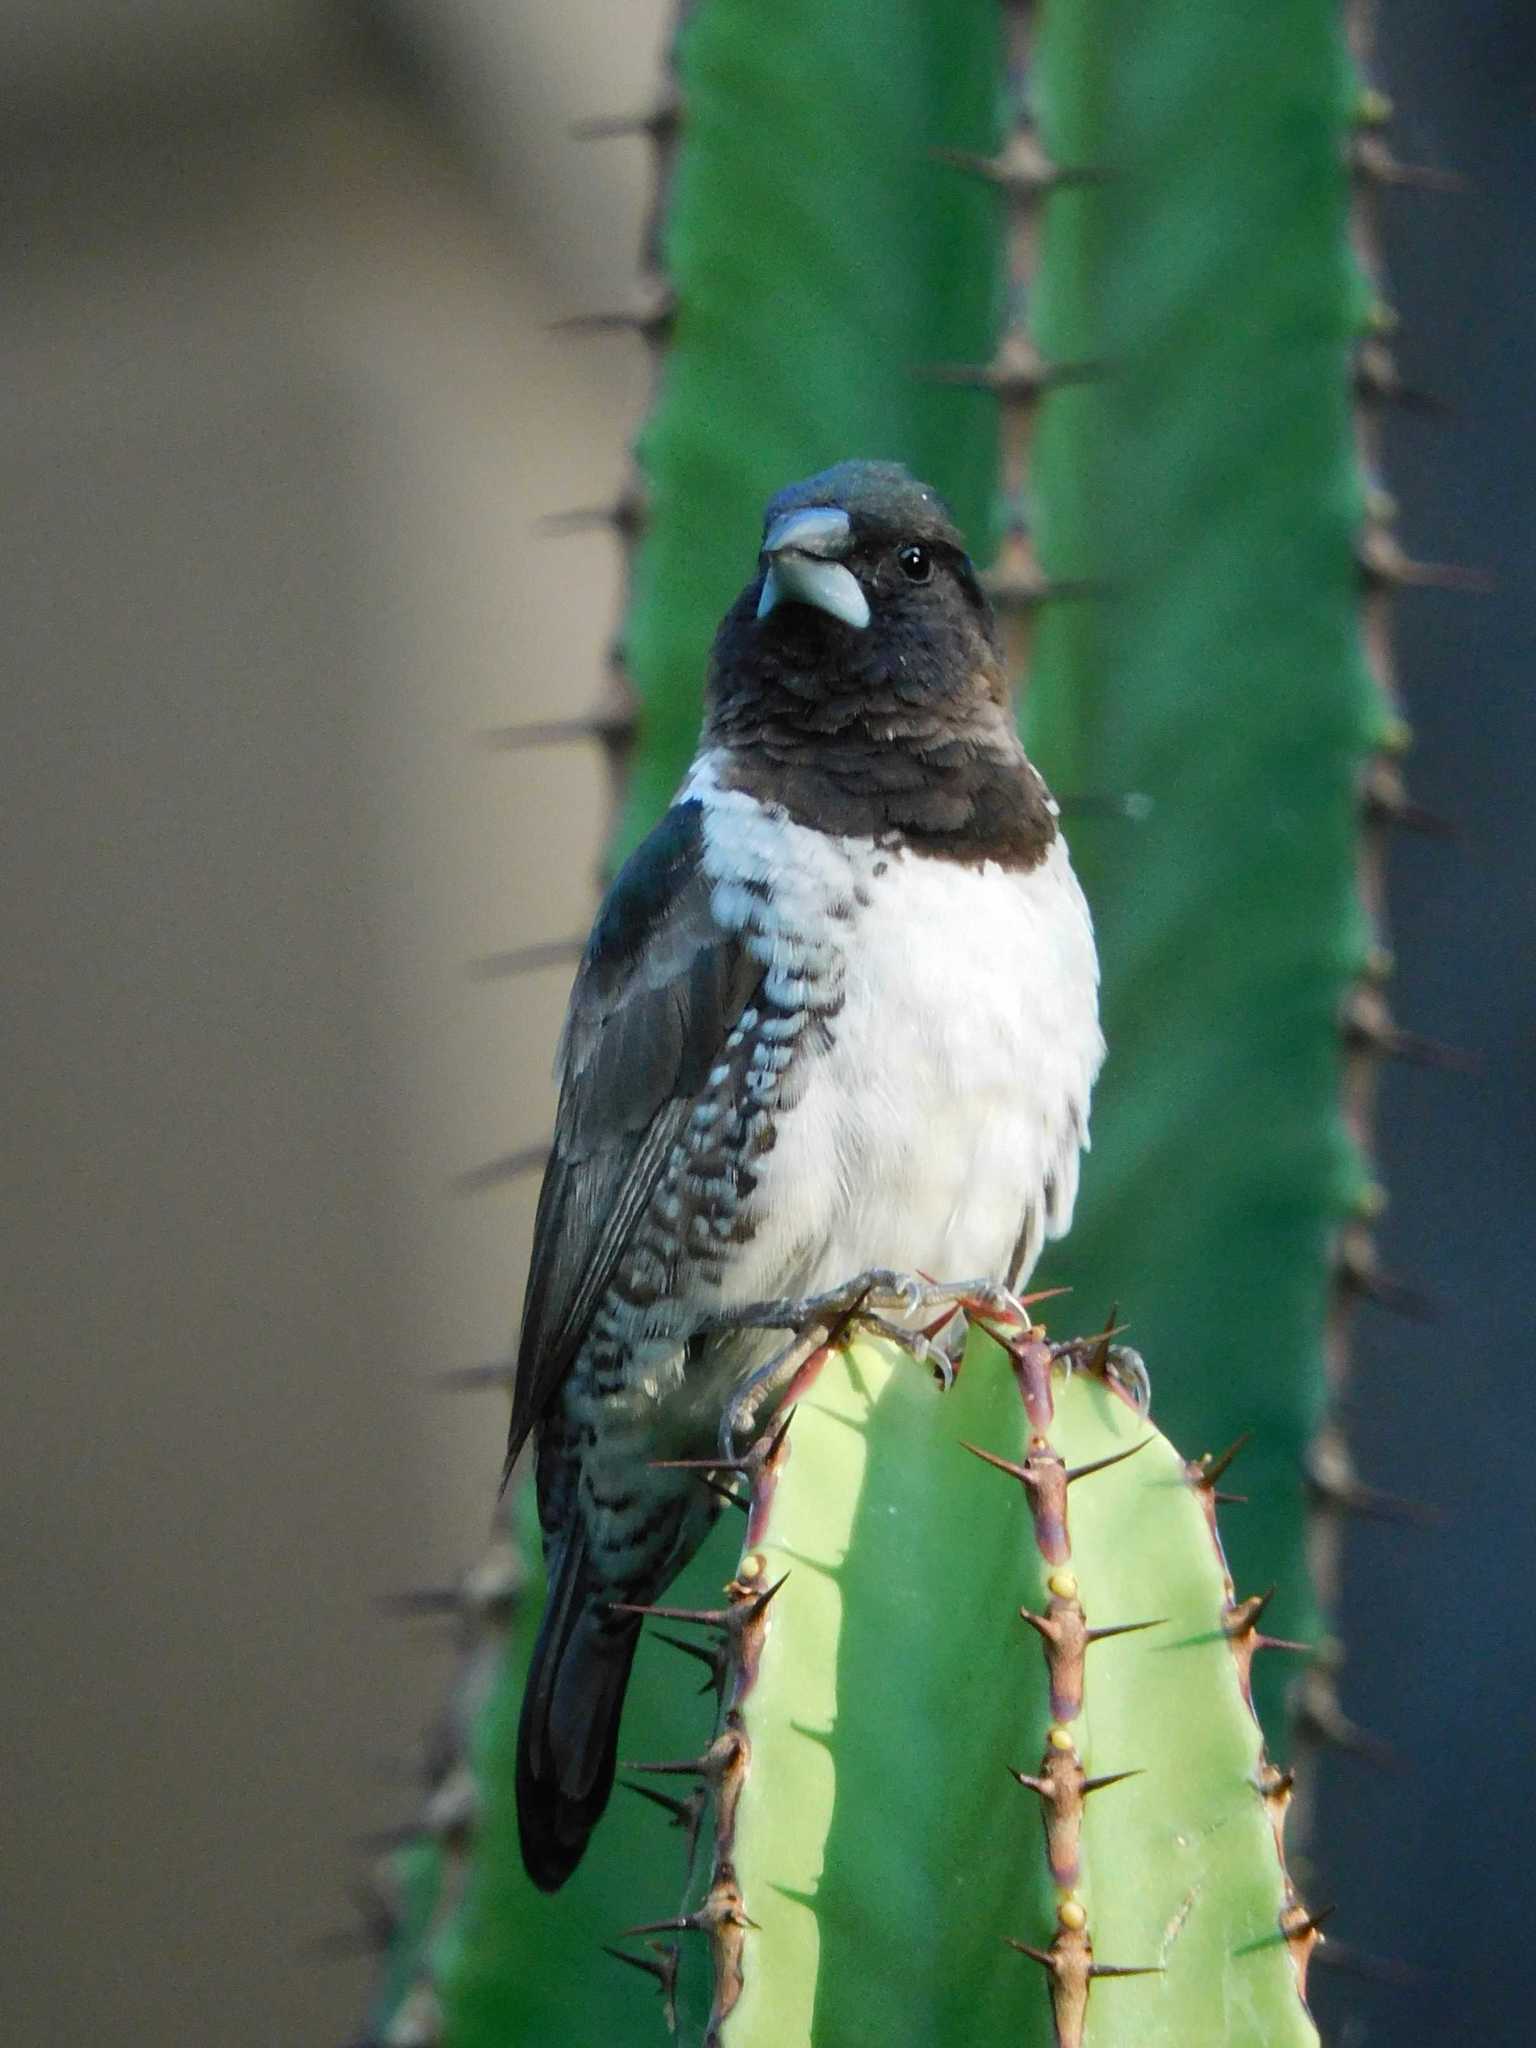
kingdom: Animalia
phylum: Chordata
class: Aves
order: Passeriformes
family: Estrildidae
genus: Lonchura
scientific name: Lonchura cucullata
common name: Bronze mannikin
